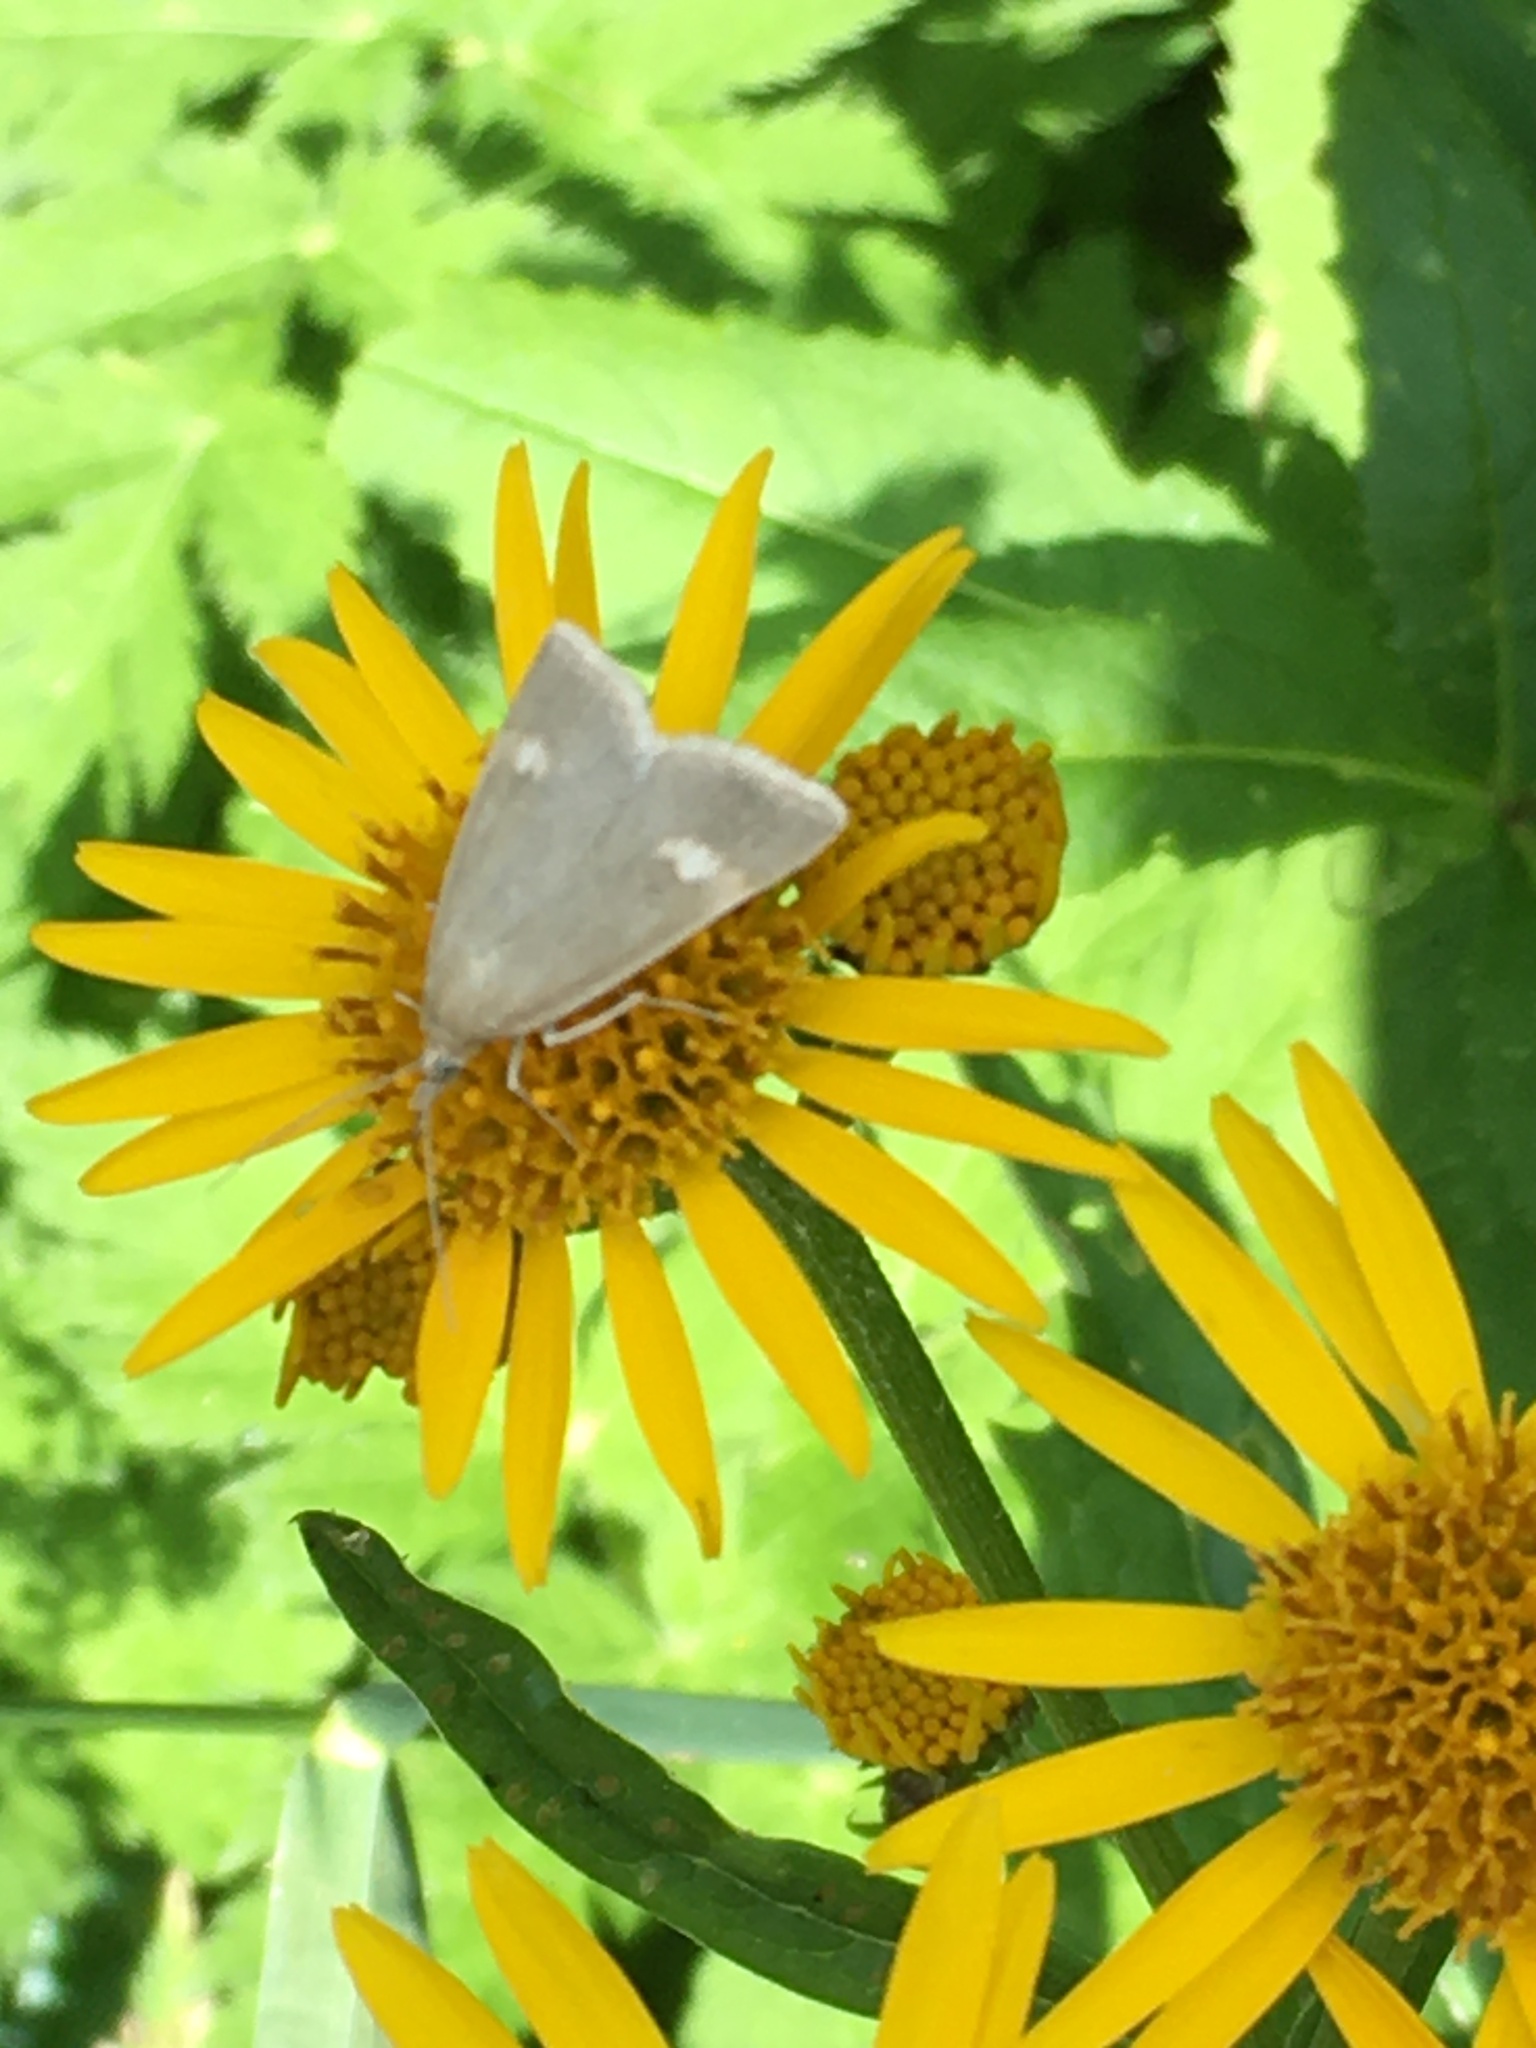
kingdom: Animalia
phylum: Arthropoda
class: Insecta
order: Lepidoptera
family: Crambidae
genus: Pyrausta
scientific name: Pyrausta alpinalis
